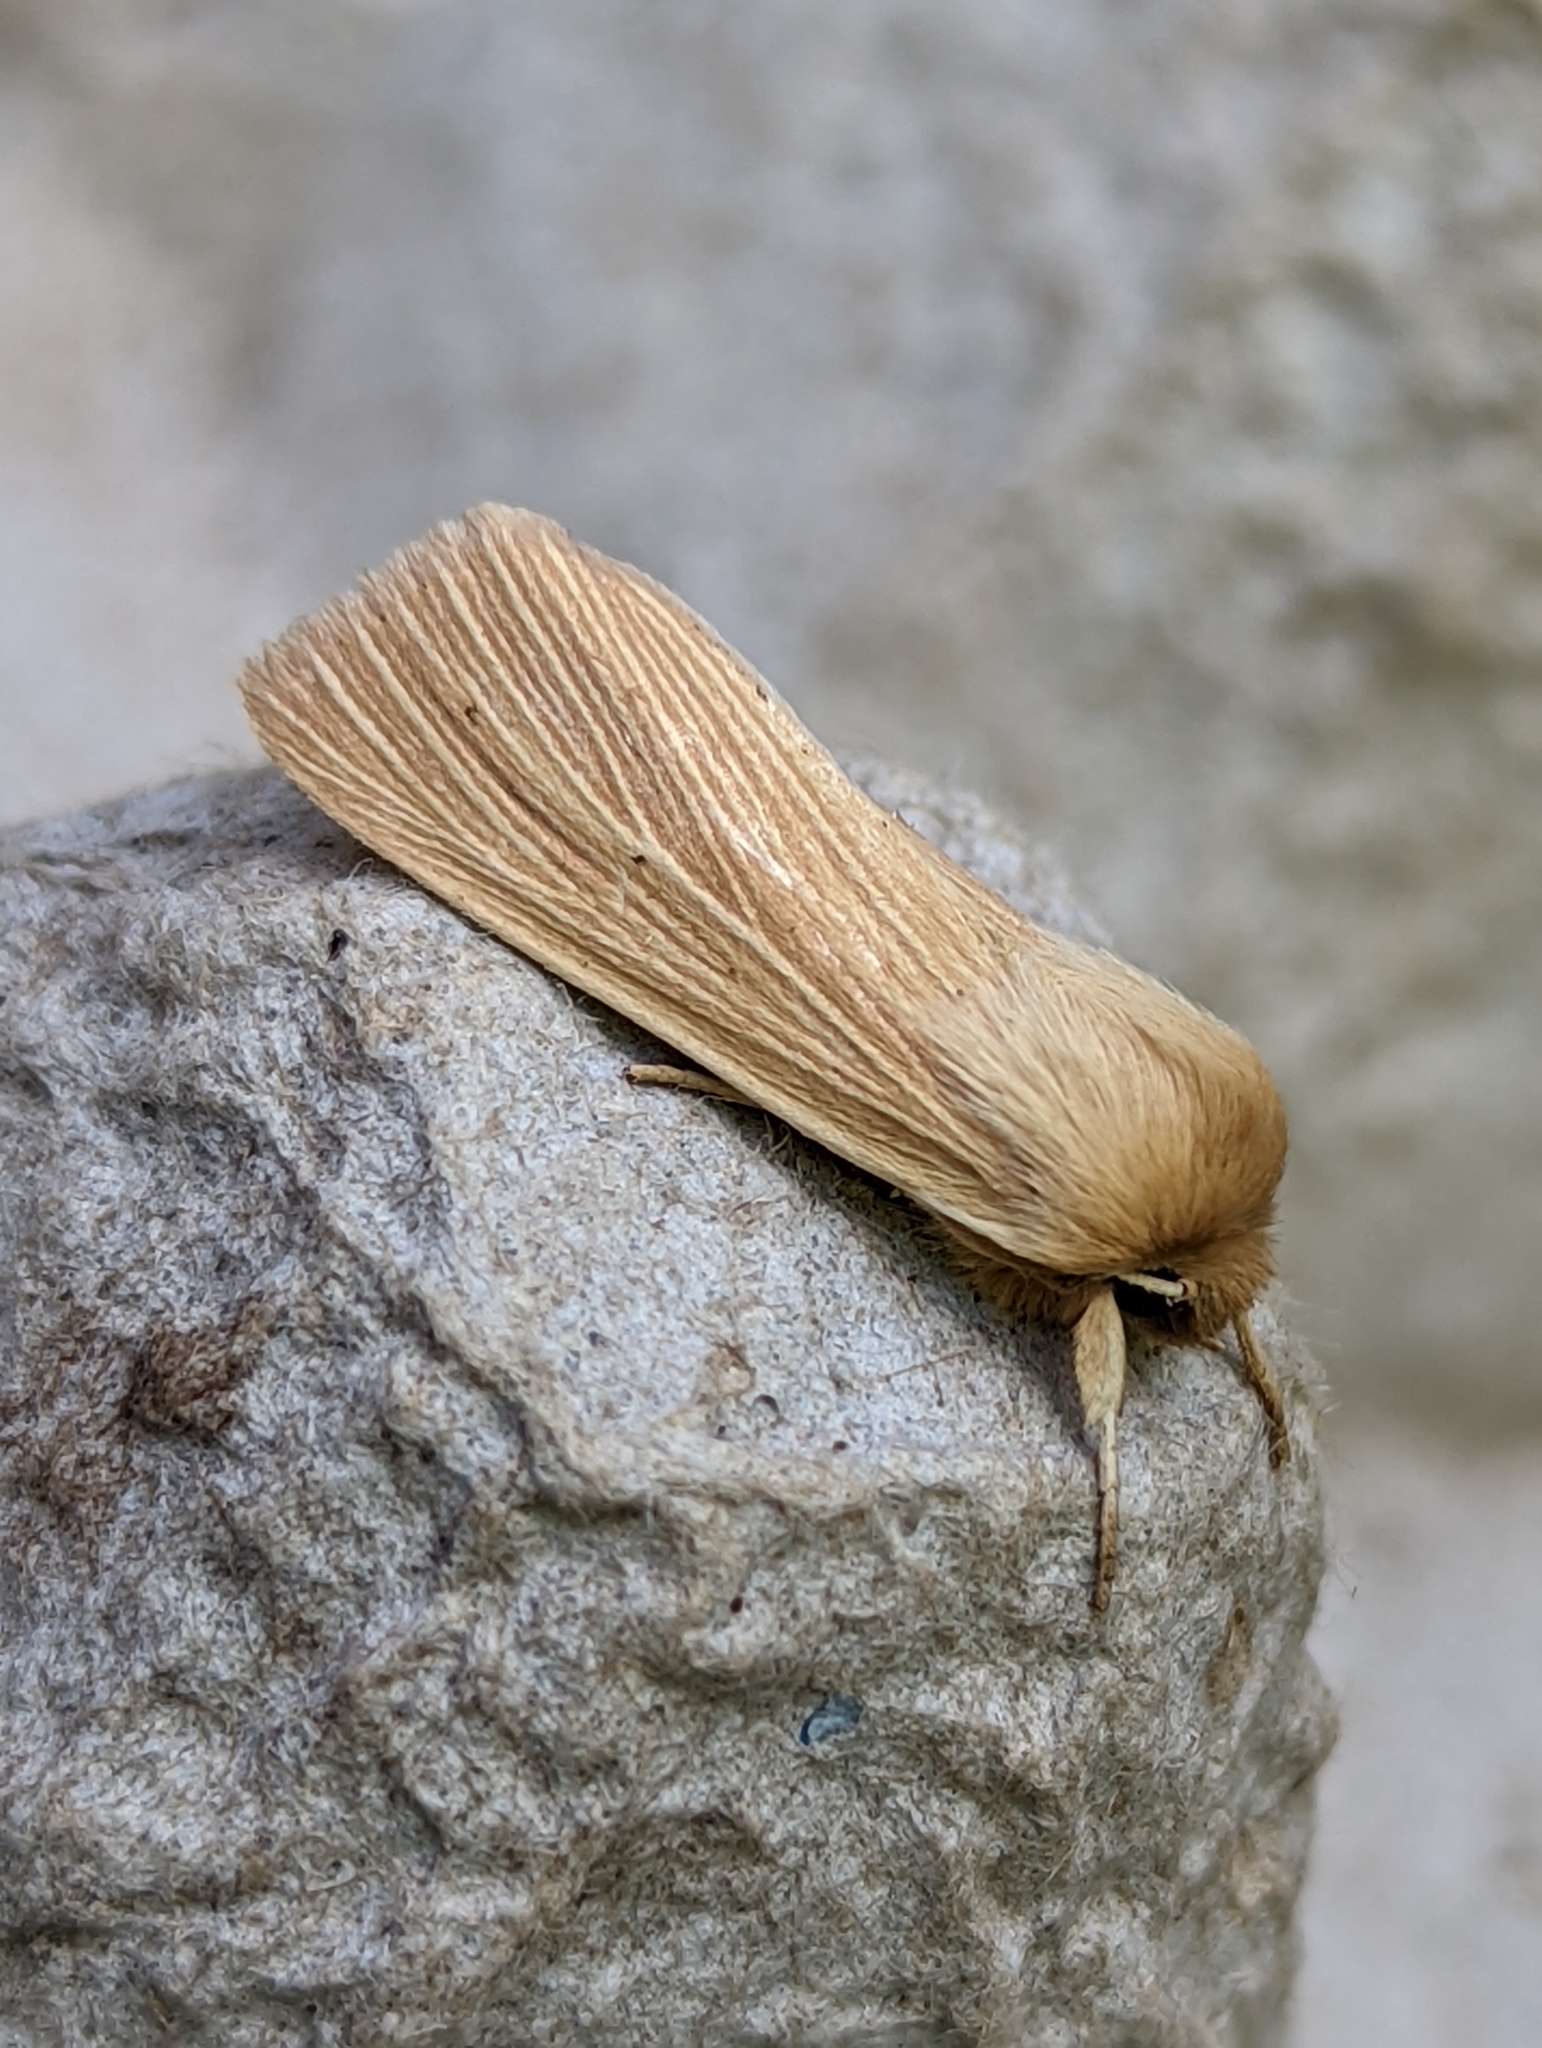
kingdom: Animalia
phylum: Arthropoda
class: Insecta
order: Lepidoptera
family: Noctuidae
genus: Mythimna
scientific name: Mythimna pallens
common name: Common wainscot
